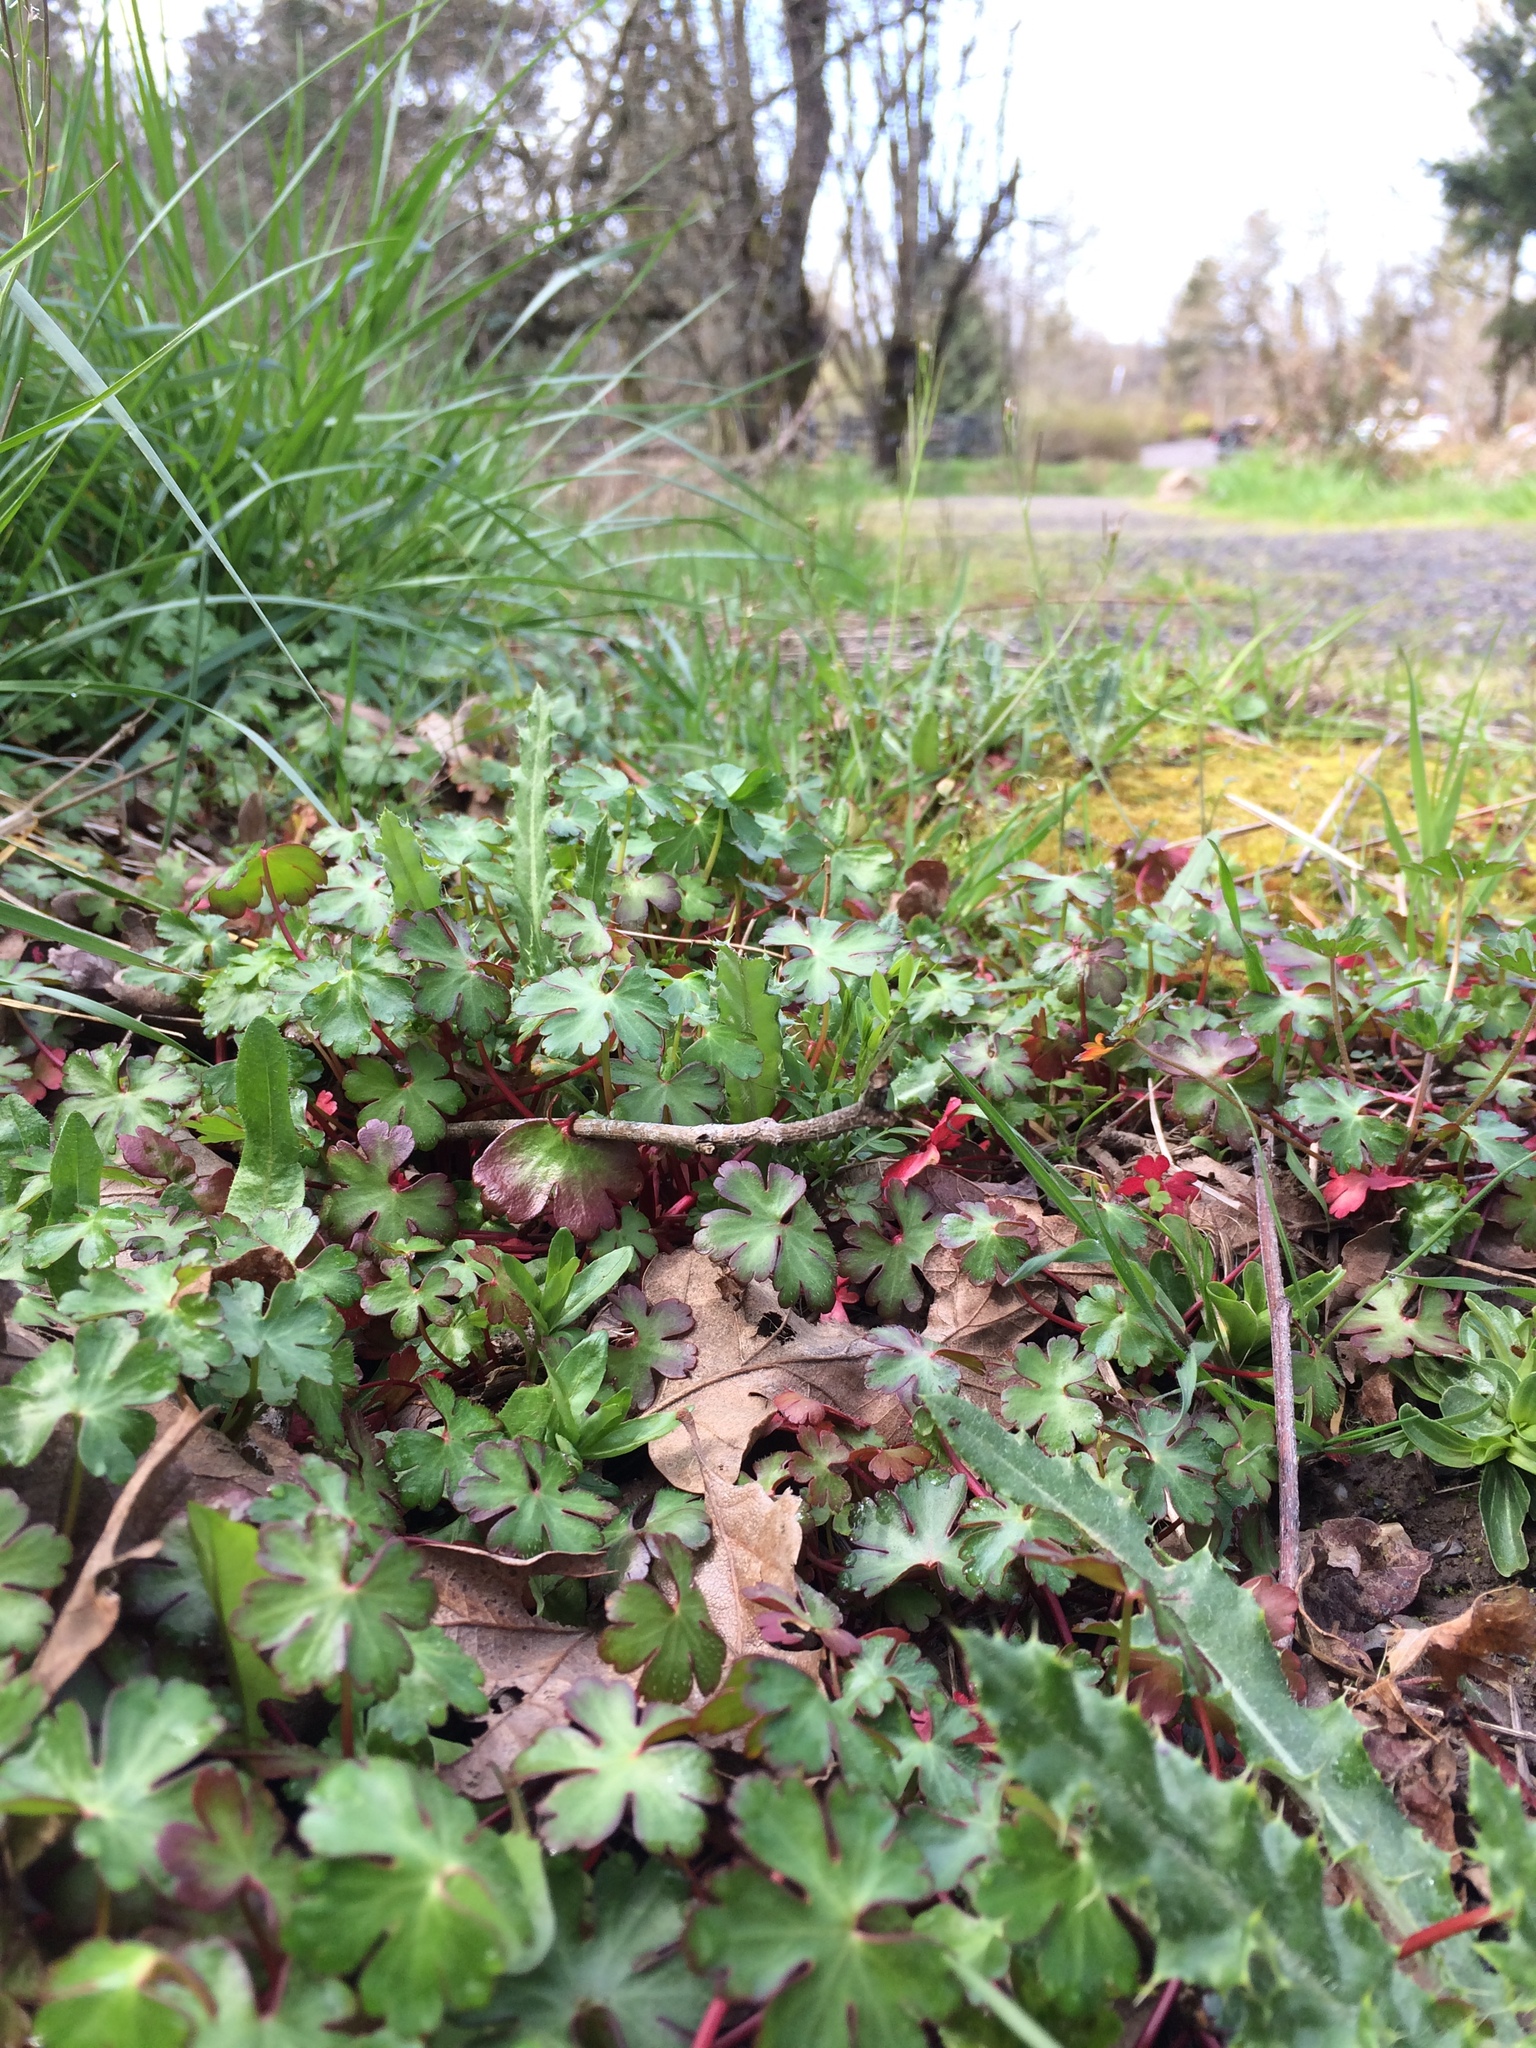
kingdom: Plantae
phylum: Tracheophyta
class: Magnoliopsida
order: Geraniales
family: Geraniaceae
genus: Geranium
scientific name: Geranium lucidum
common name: Shining crane's-bill
